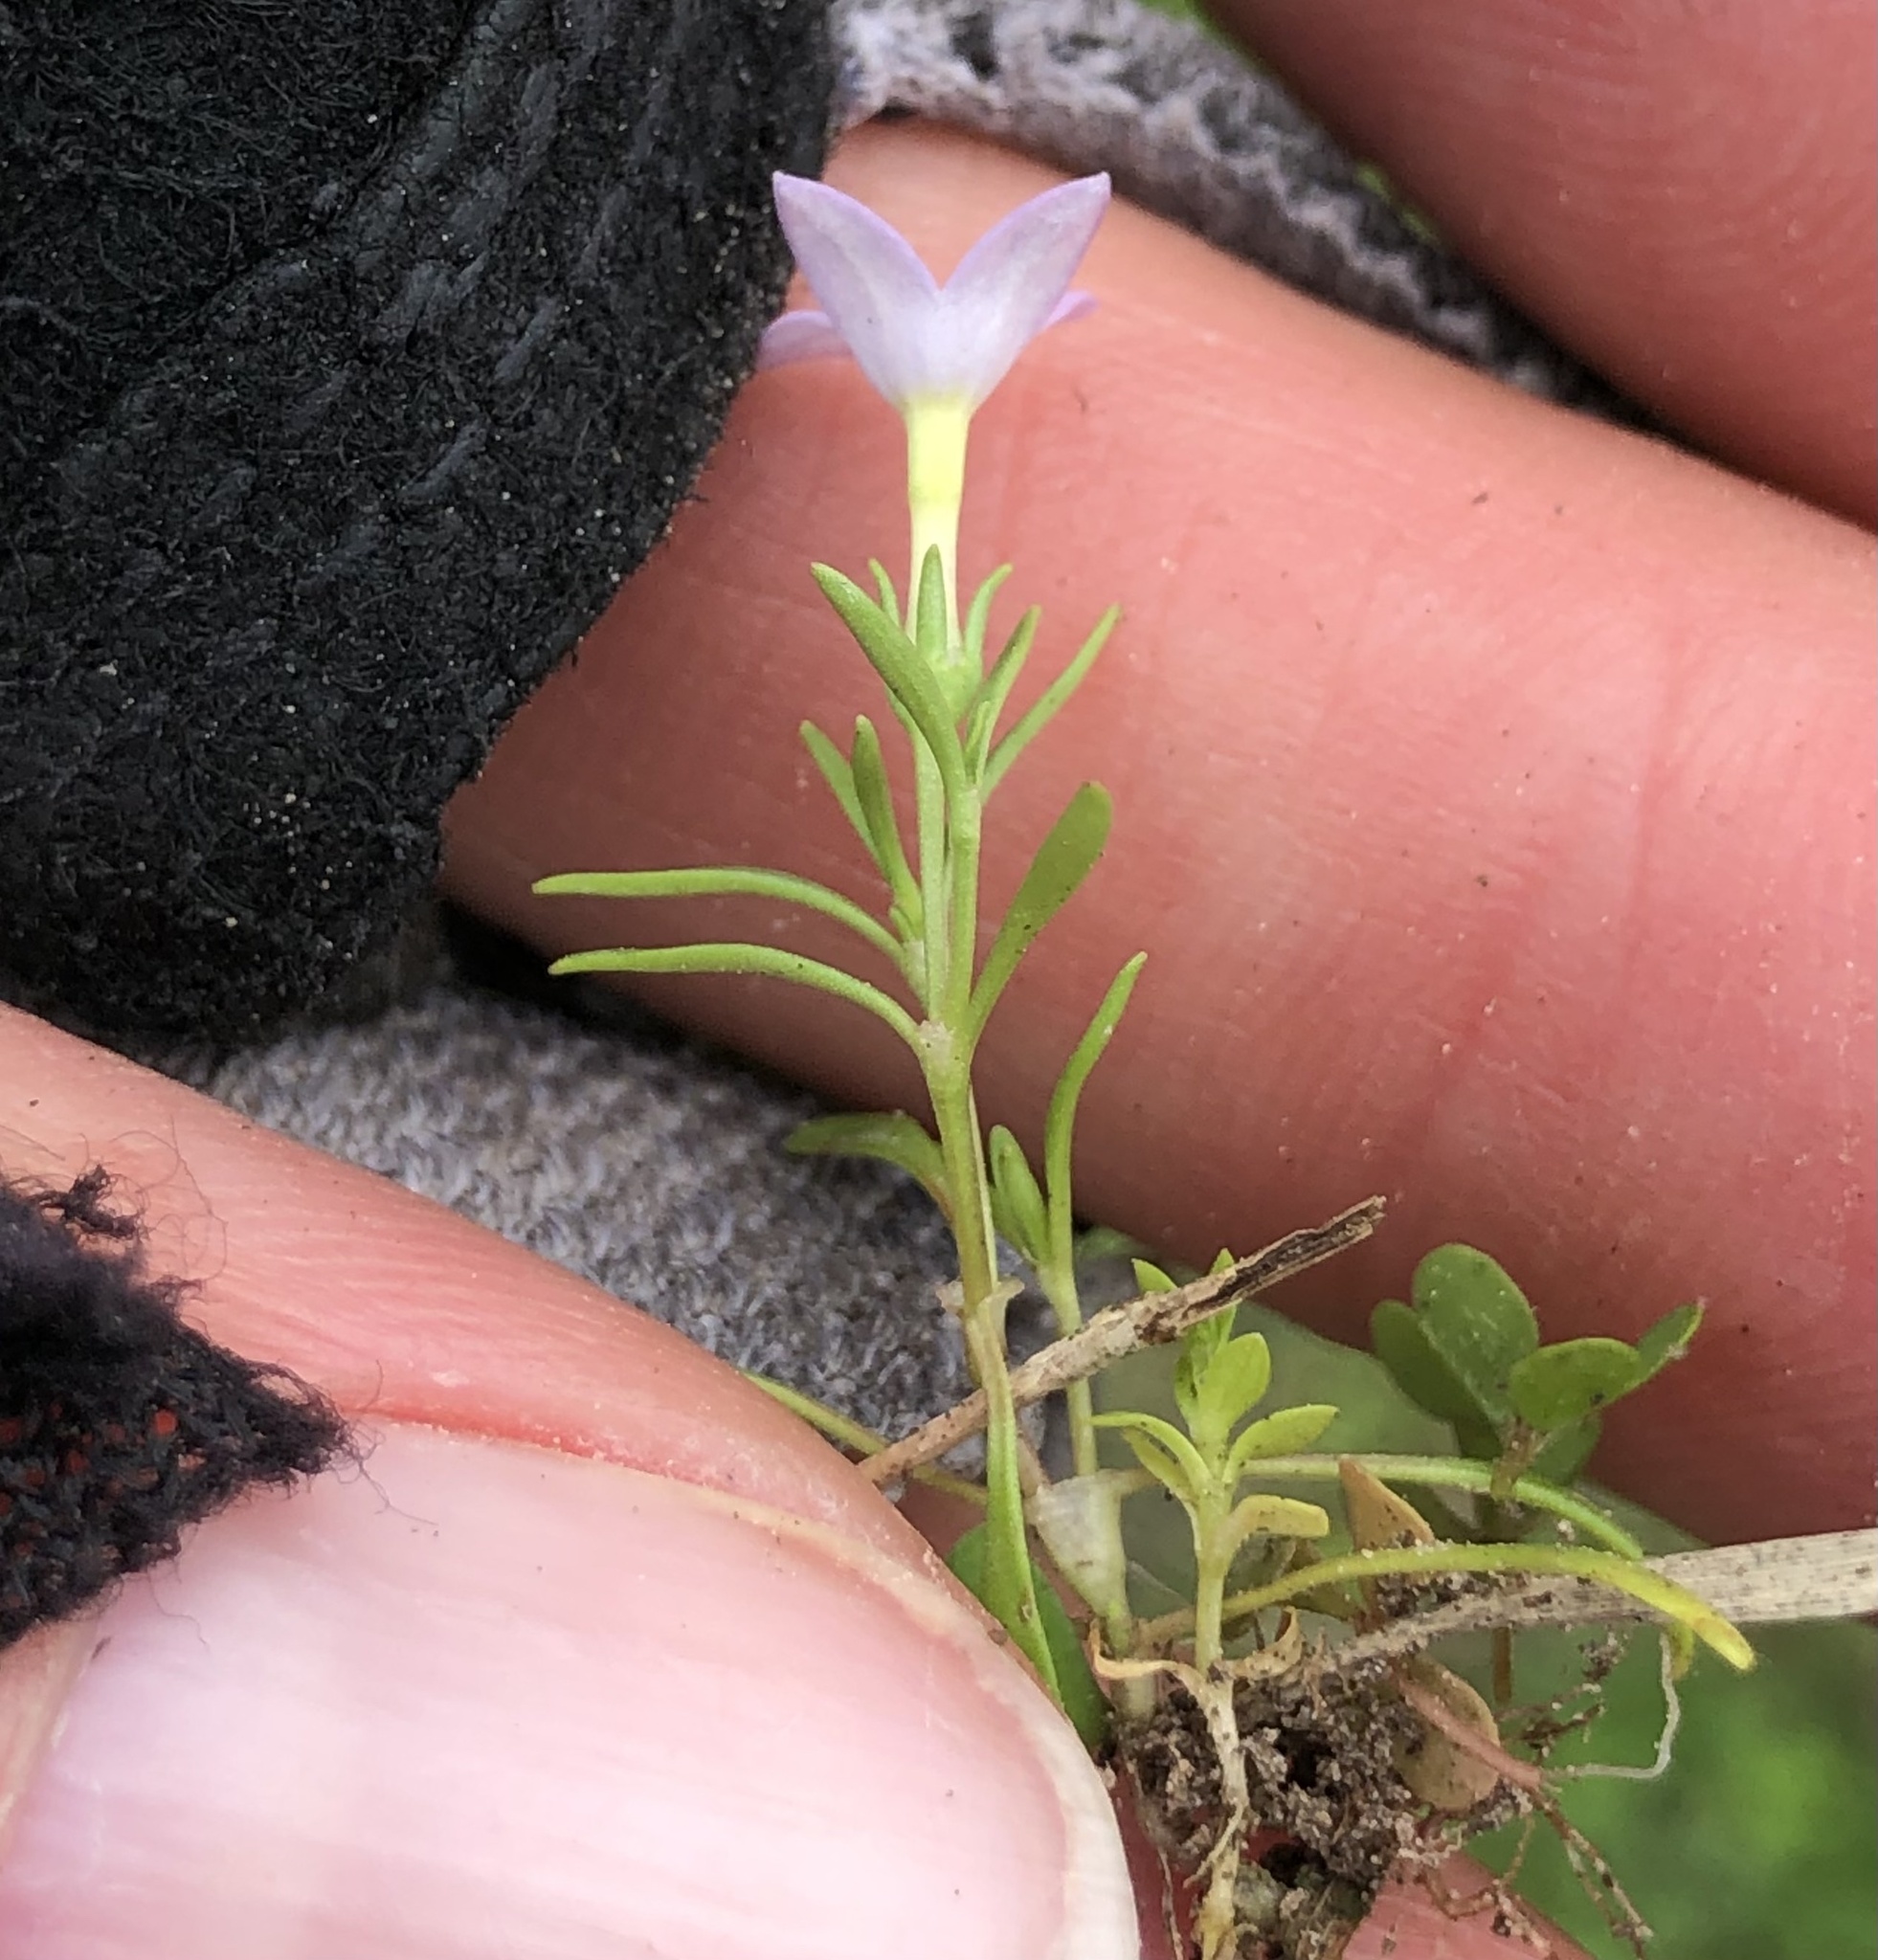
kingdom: Plantae
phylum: Tracheophyta
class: Magnoliopsida
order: Gentianales
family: Rubiaceae
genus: Houstonia
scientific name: Houstonia rosea
